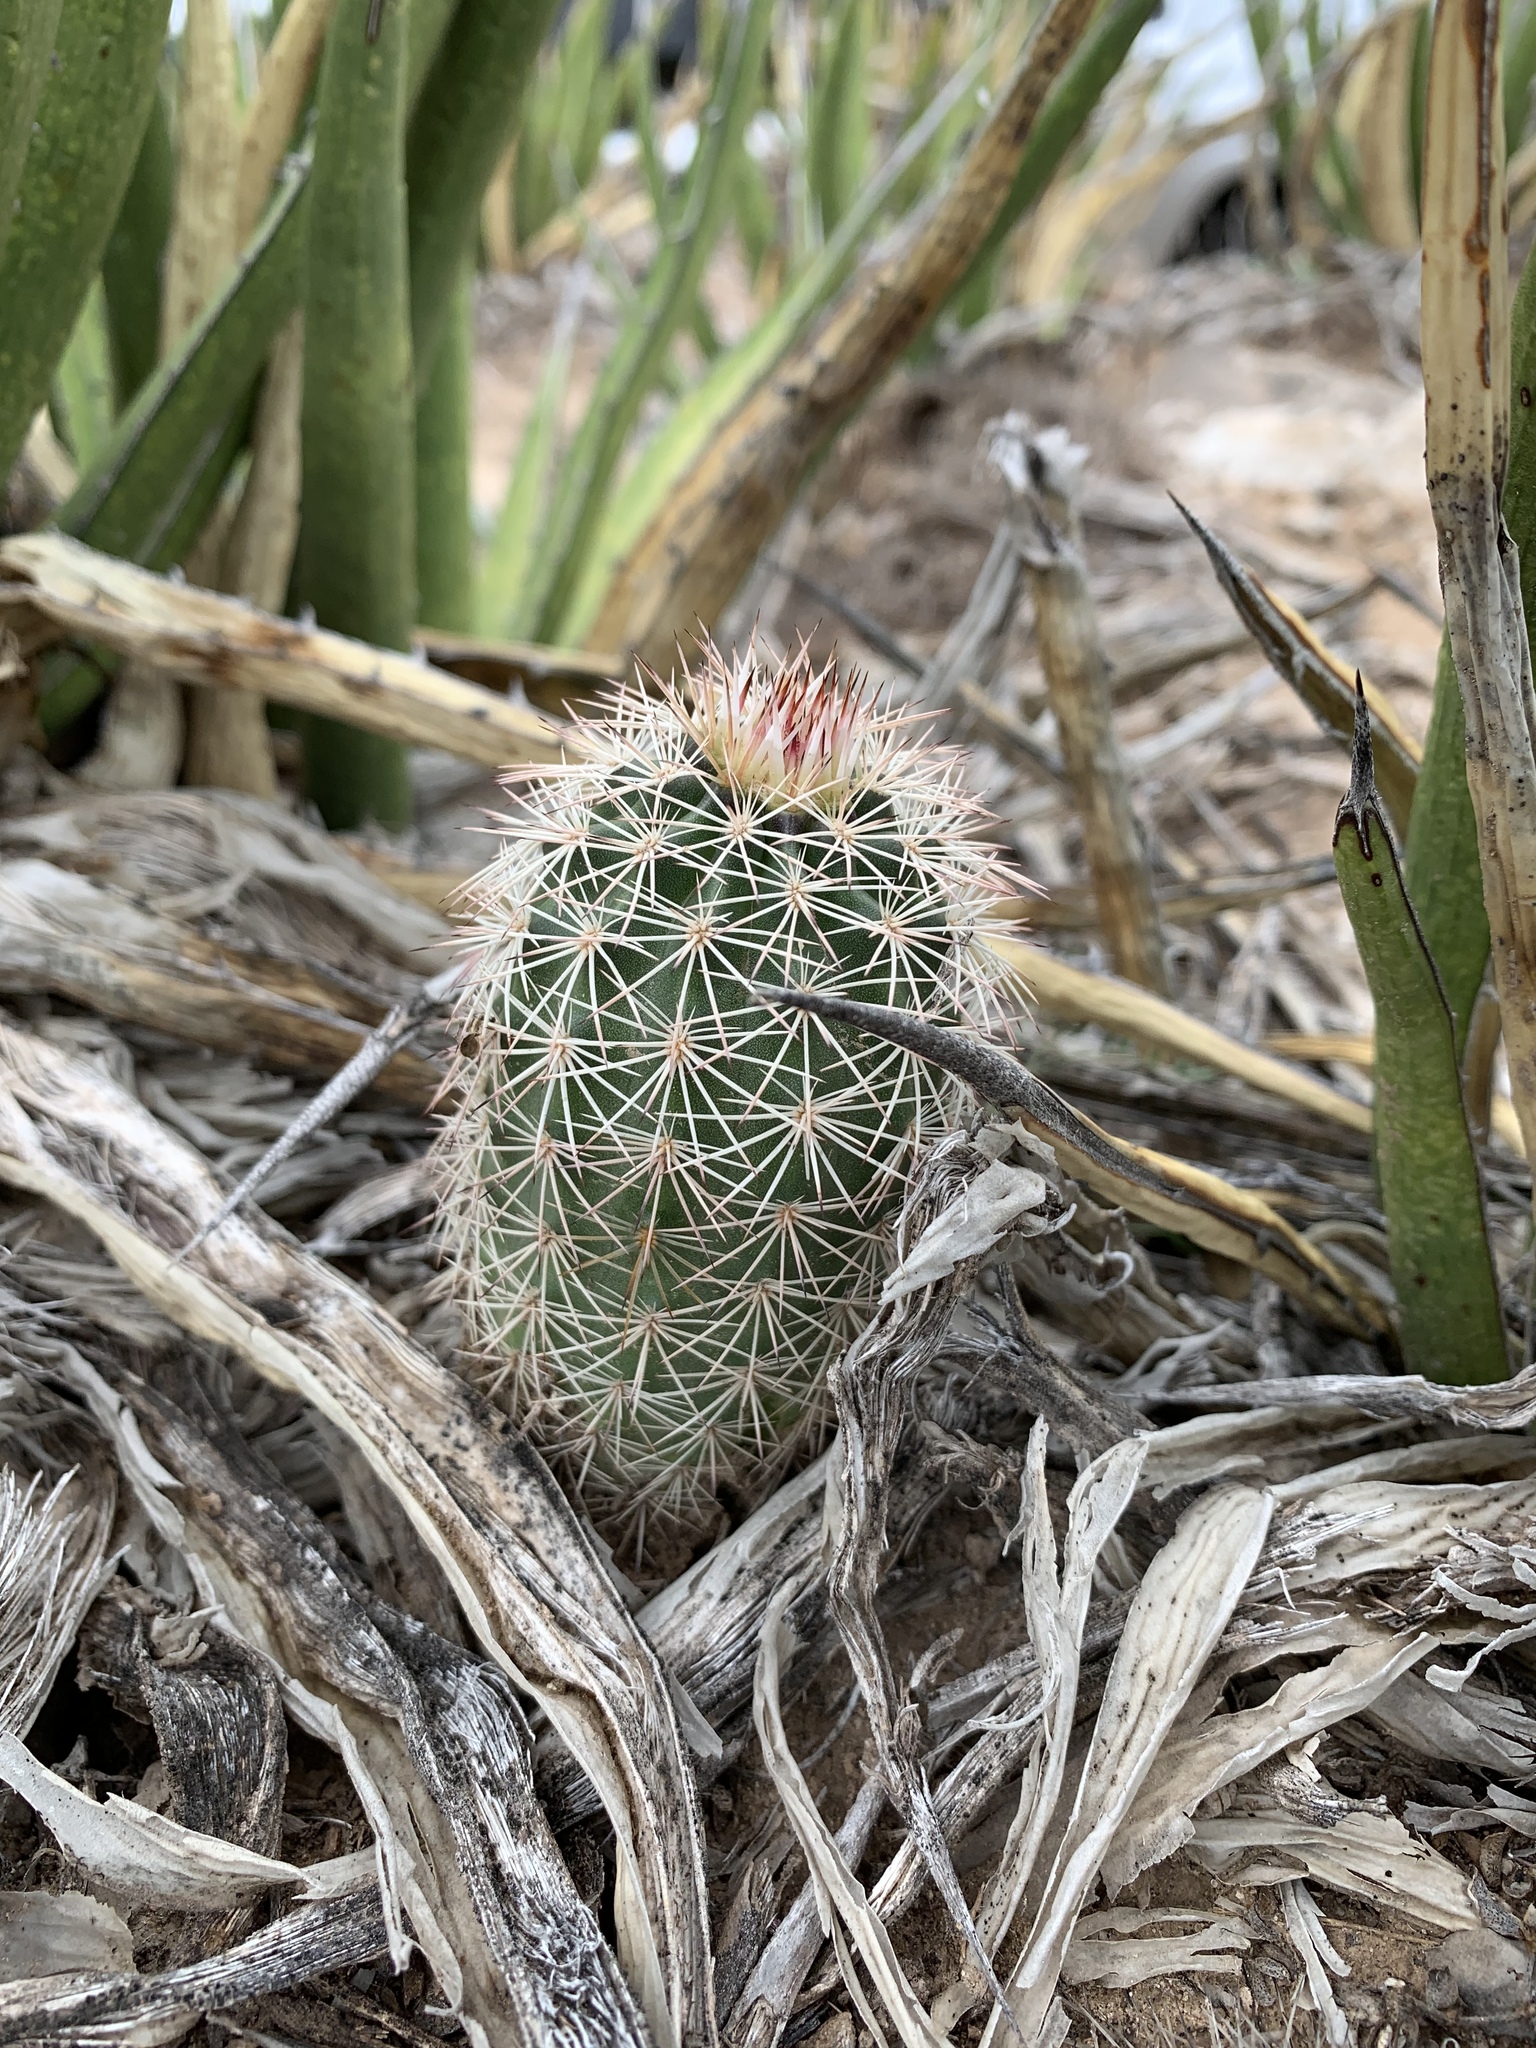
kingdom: Plantae
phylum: Tracheophyta
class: Magnoliopsida
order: Caryophyllales
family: Cactaceae
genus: Echinocereus
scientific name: Echinocereus dasyacanthus
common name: Spiny hedgehog cactus
